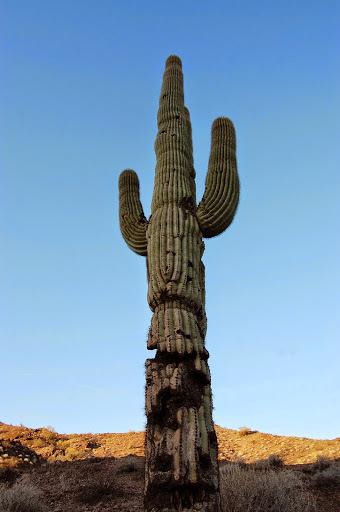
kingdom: Plantae
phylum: Tracheophyta
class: Magnoliopsida
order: Caryophyllales
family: Cactaceae
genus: Carnegiea
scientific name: Carnegiea gigantea
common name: Saguaro
